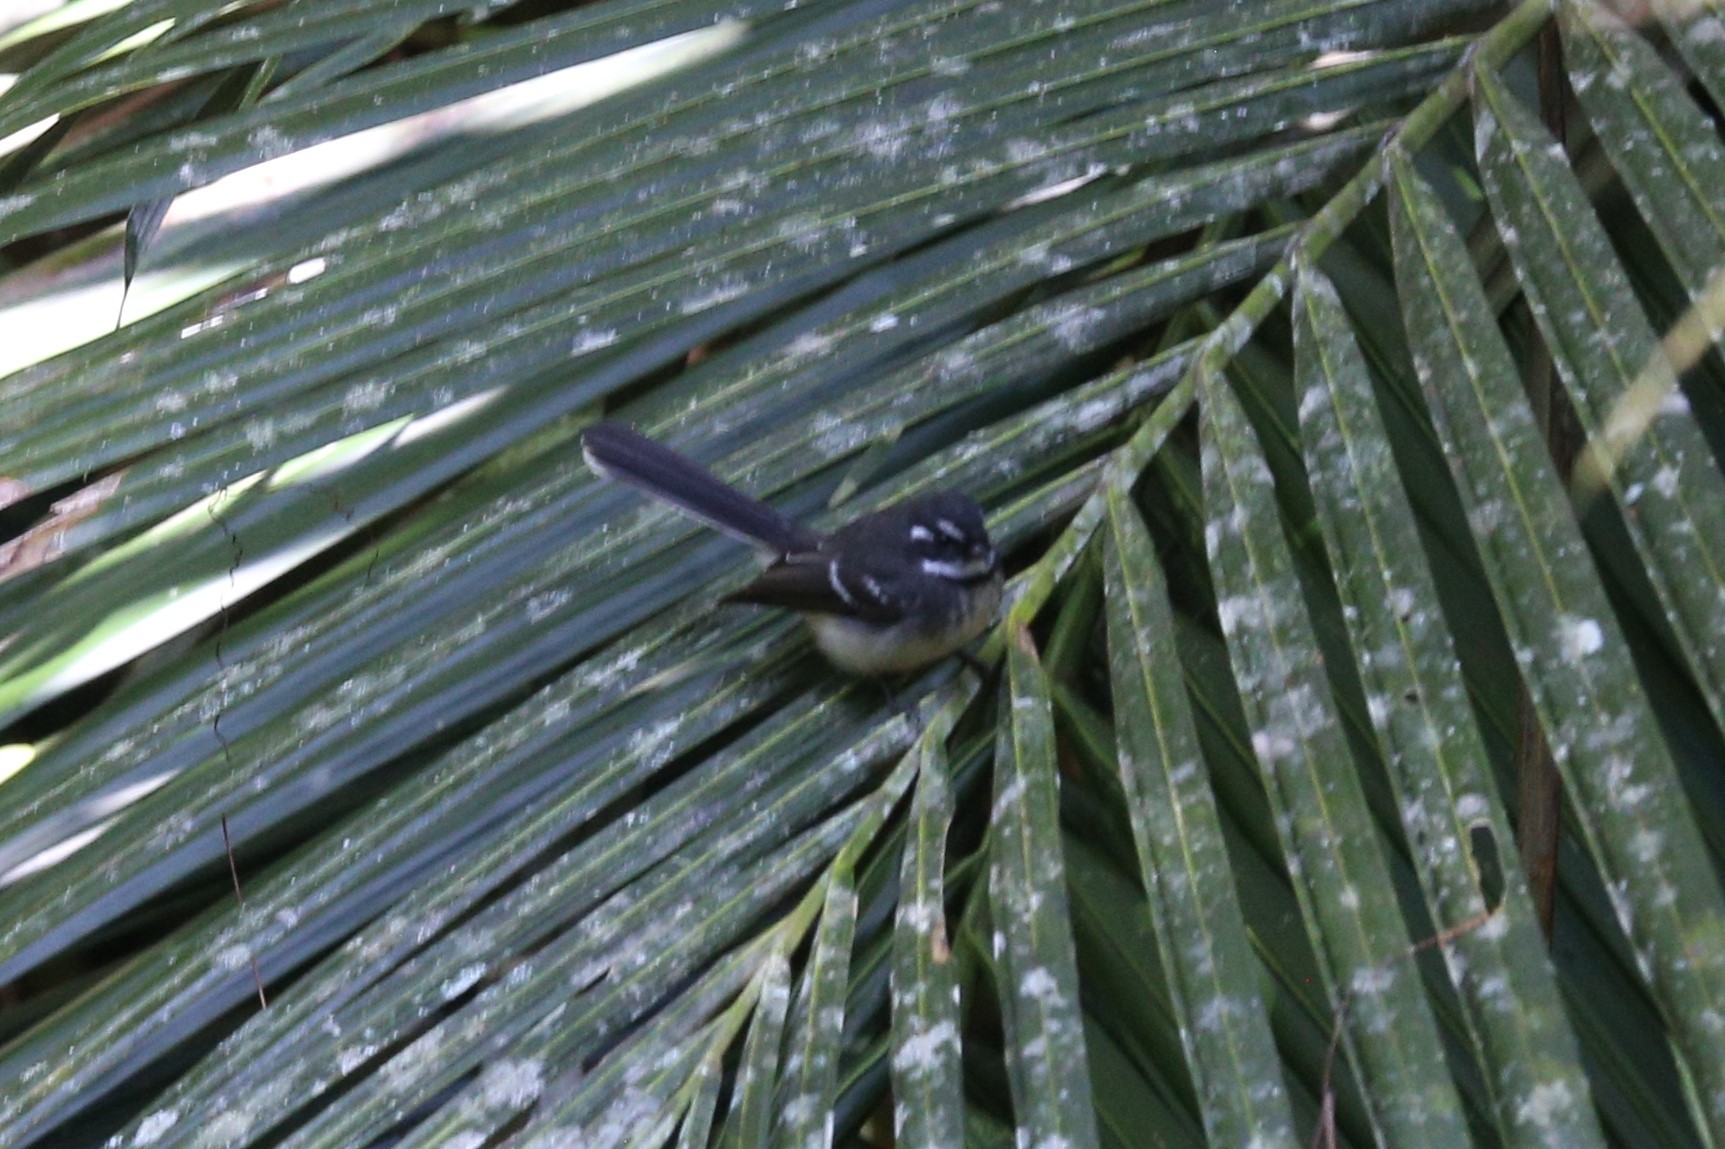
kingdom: Animalia
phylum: Chordata
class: Aves
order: Passeriformes
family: Rhipiduridae
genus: Rhipidura
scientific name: Rhipidura albiscapa
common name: Grey fantail
